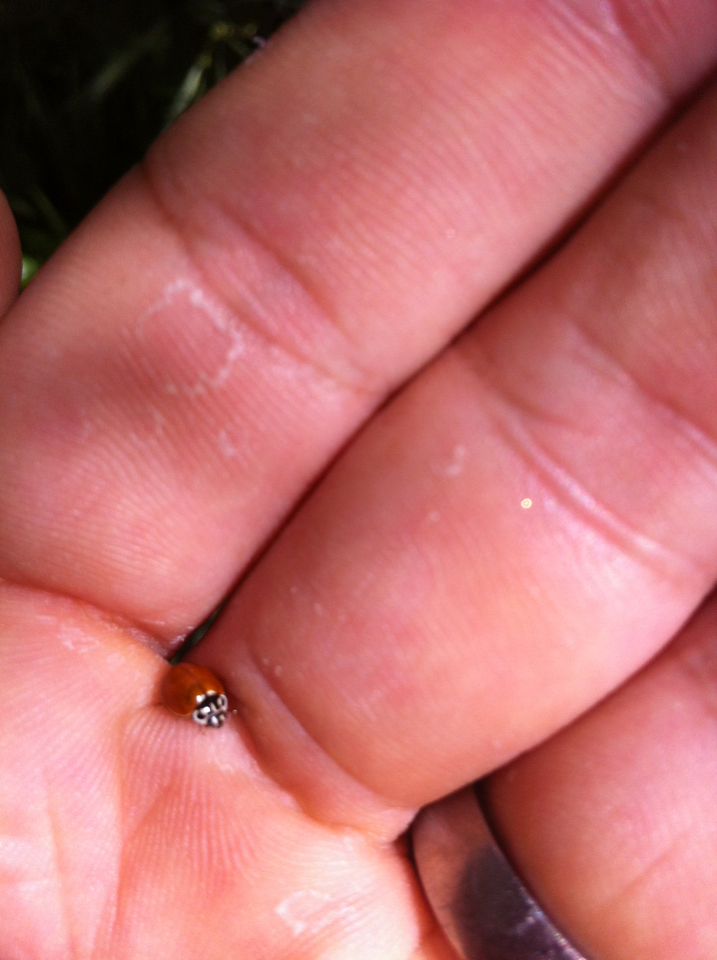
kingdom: Animalia
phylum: Arthropoda
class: Insecta
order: Coleoptera
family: Coccinellidae
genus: Cycloneda
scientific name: Cycloneda polita
